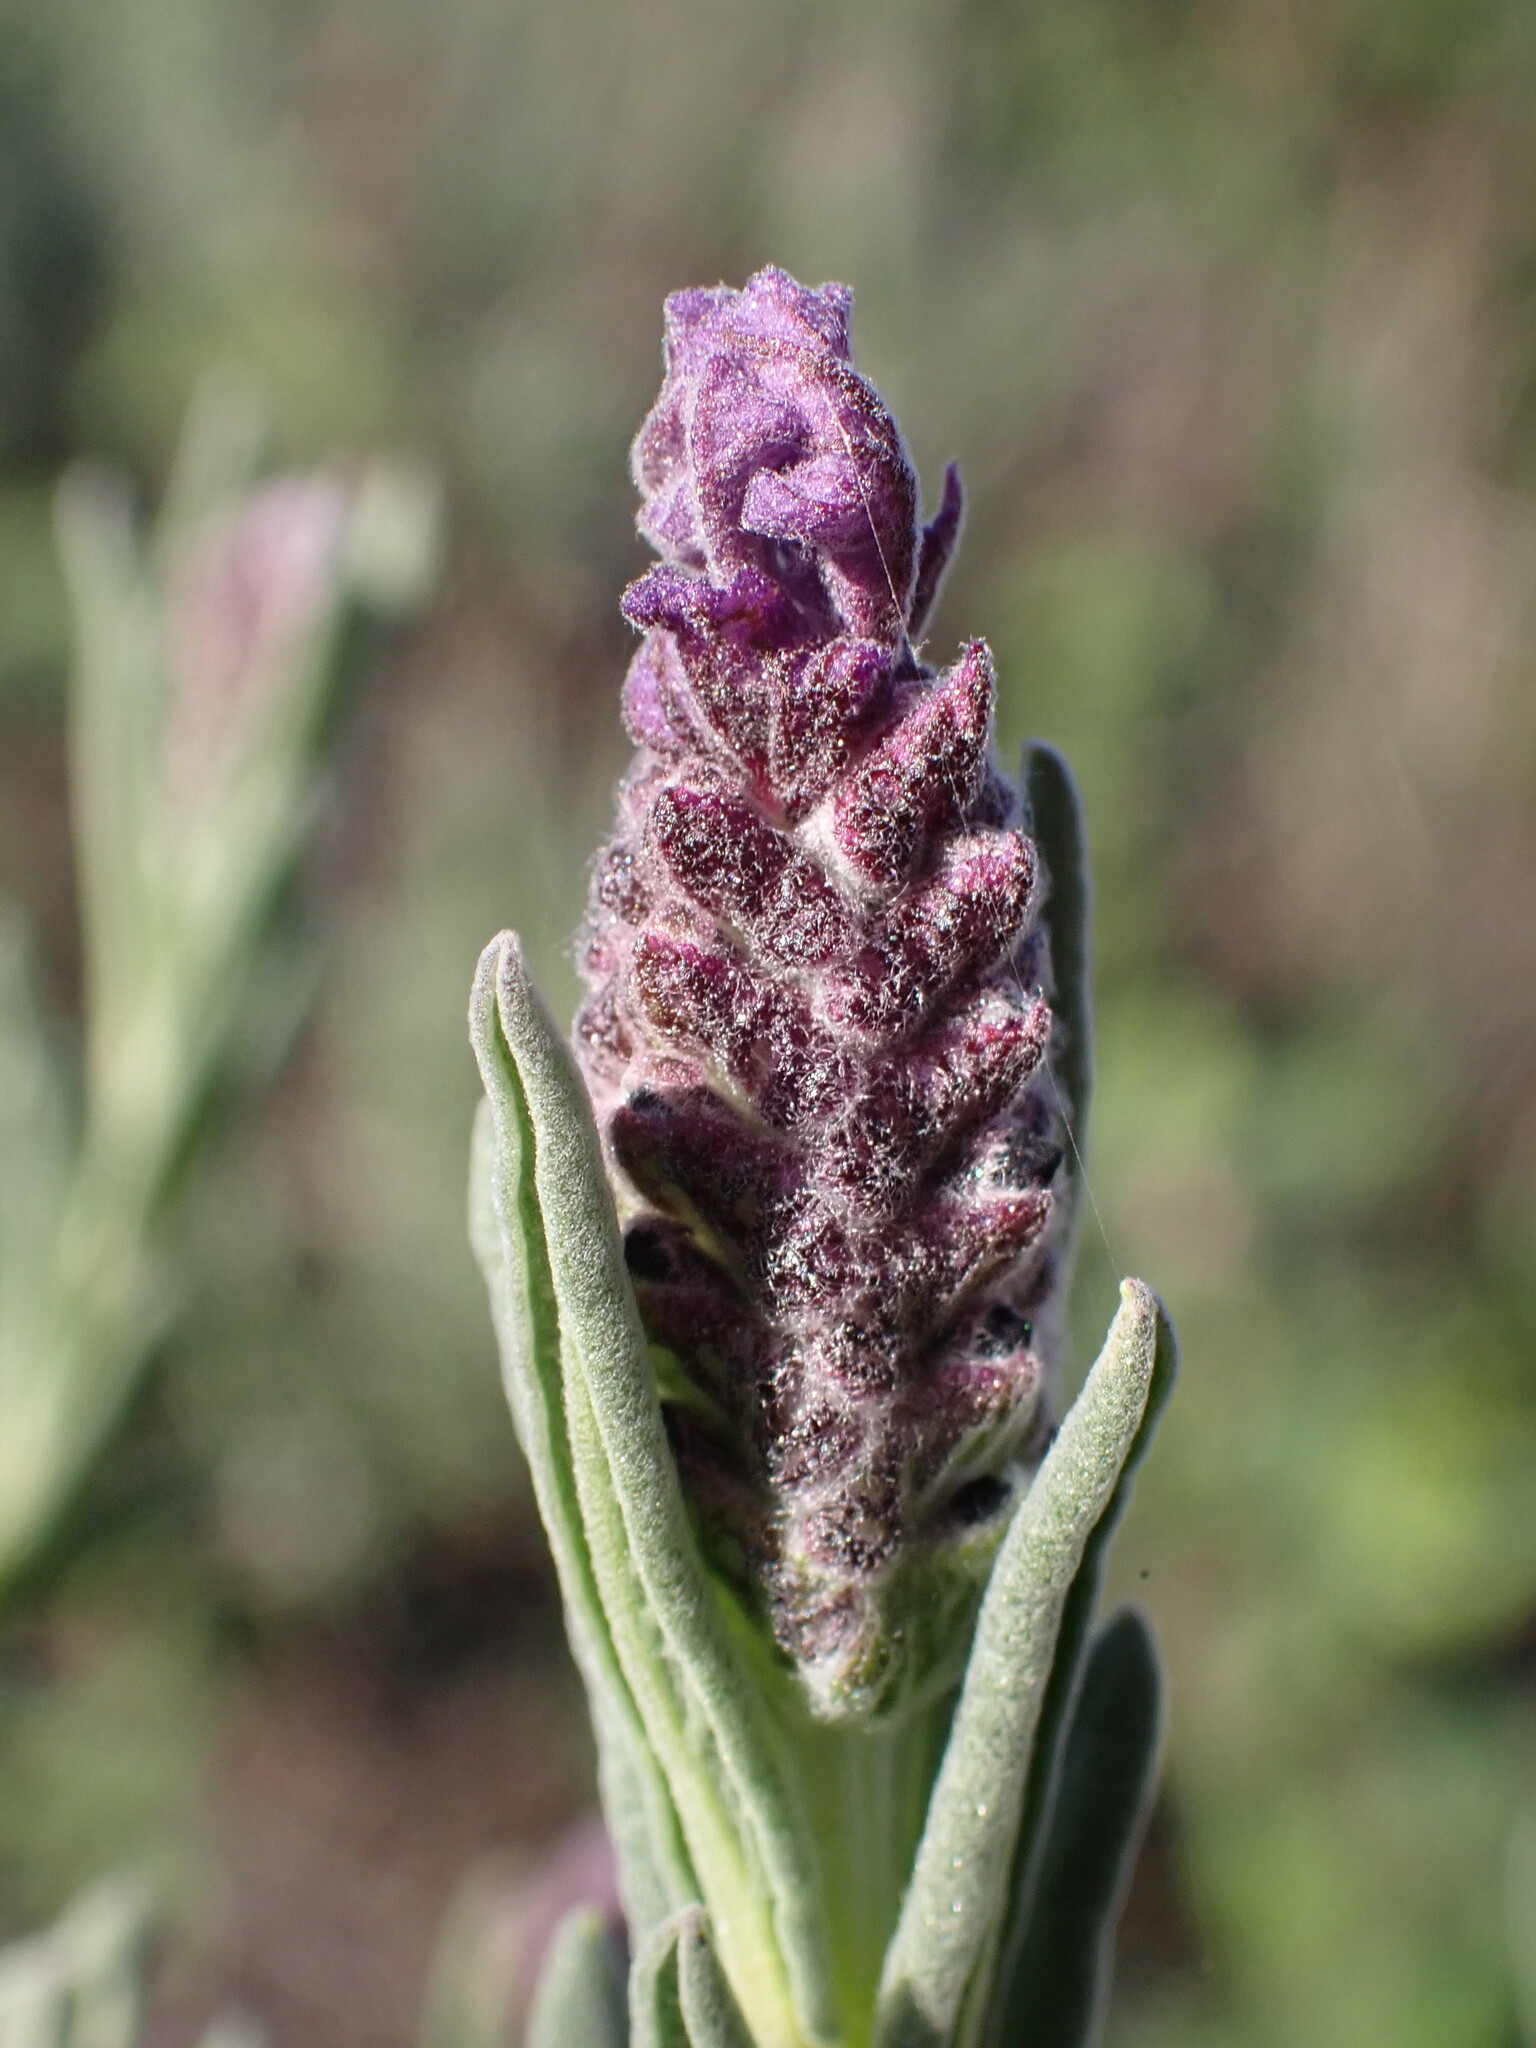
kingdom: Plantae
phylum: Tracheophyta
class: Magnoliopsida
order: Lamiales
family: Lamiaceae
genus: Lavandula
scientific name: Lavandula stoechas
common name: French lavender
